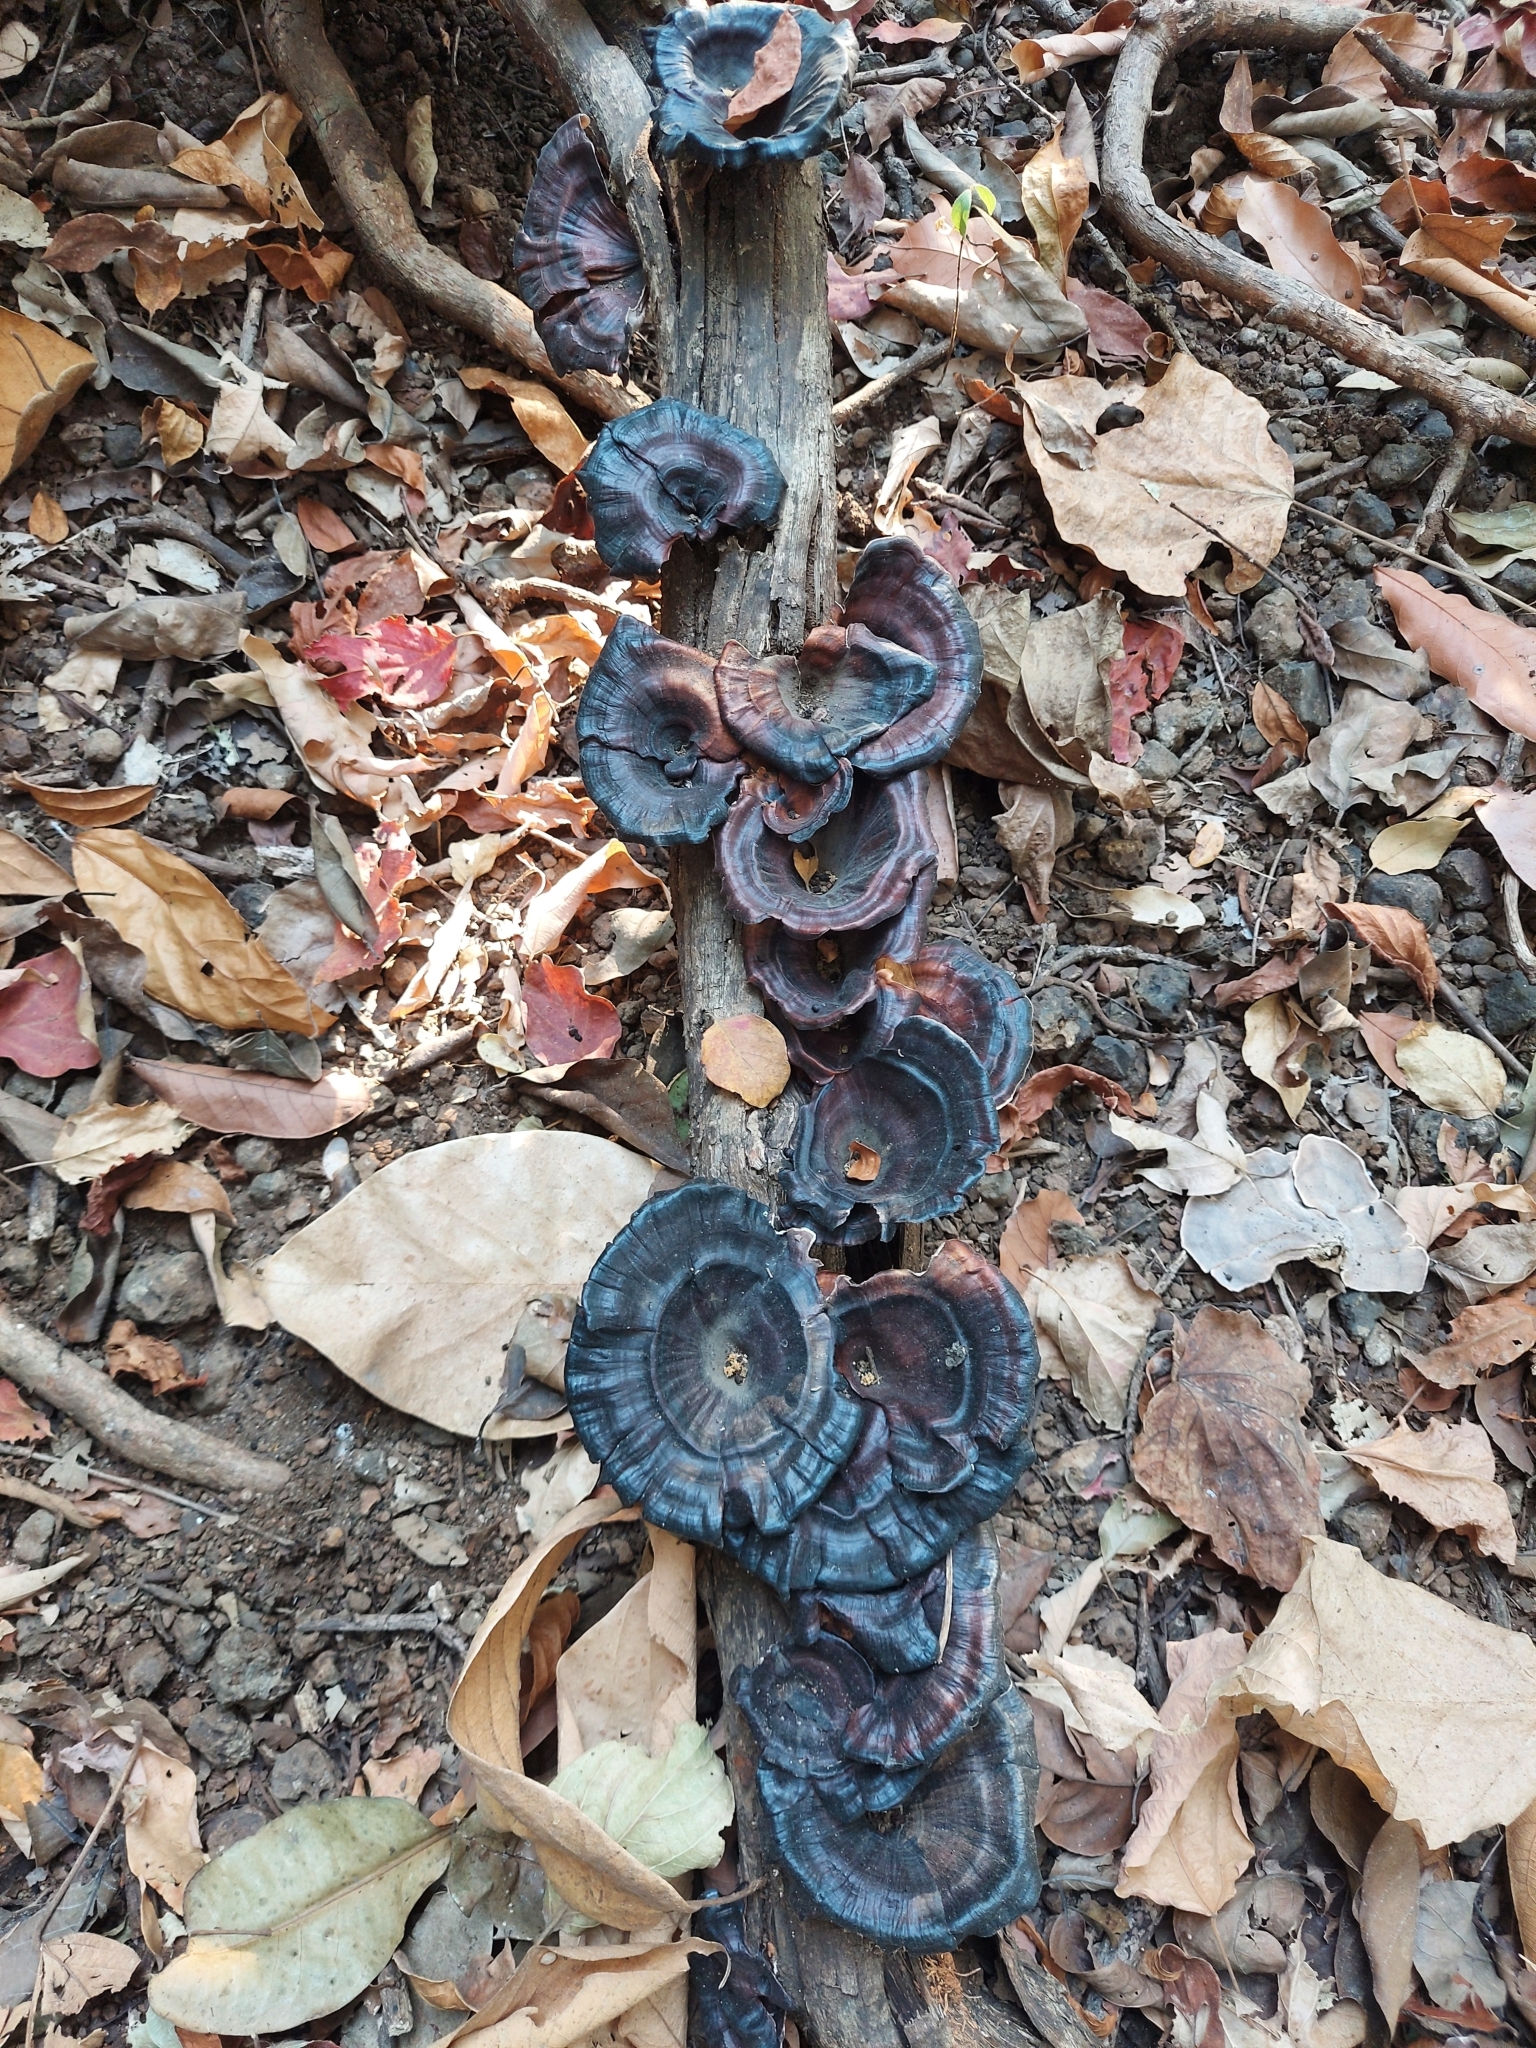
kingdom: Fungi
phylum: Basidiomycota
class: Agaricomycetes
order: Polyporales
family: Polyporaceae
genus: Microporus
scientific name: Microporus xanthopus
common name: Yellow-stemmed micropore
